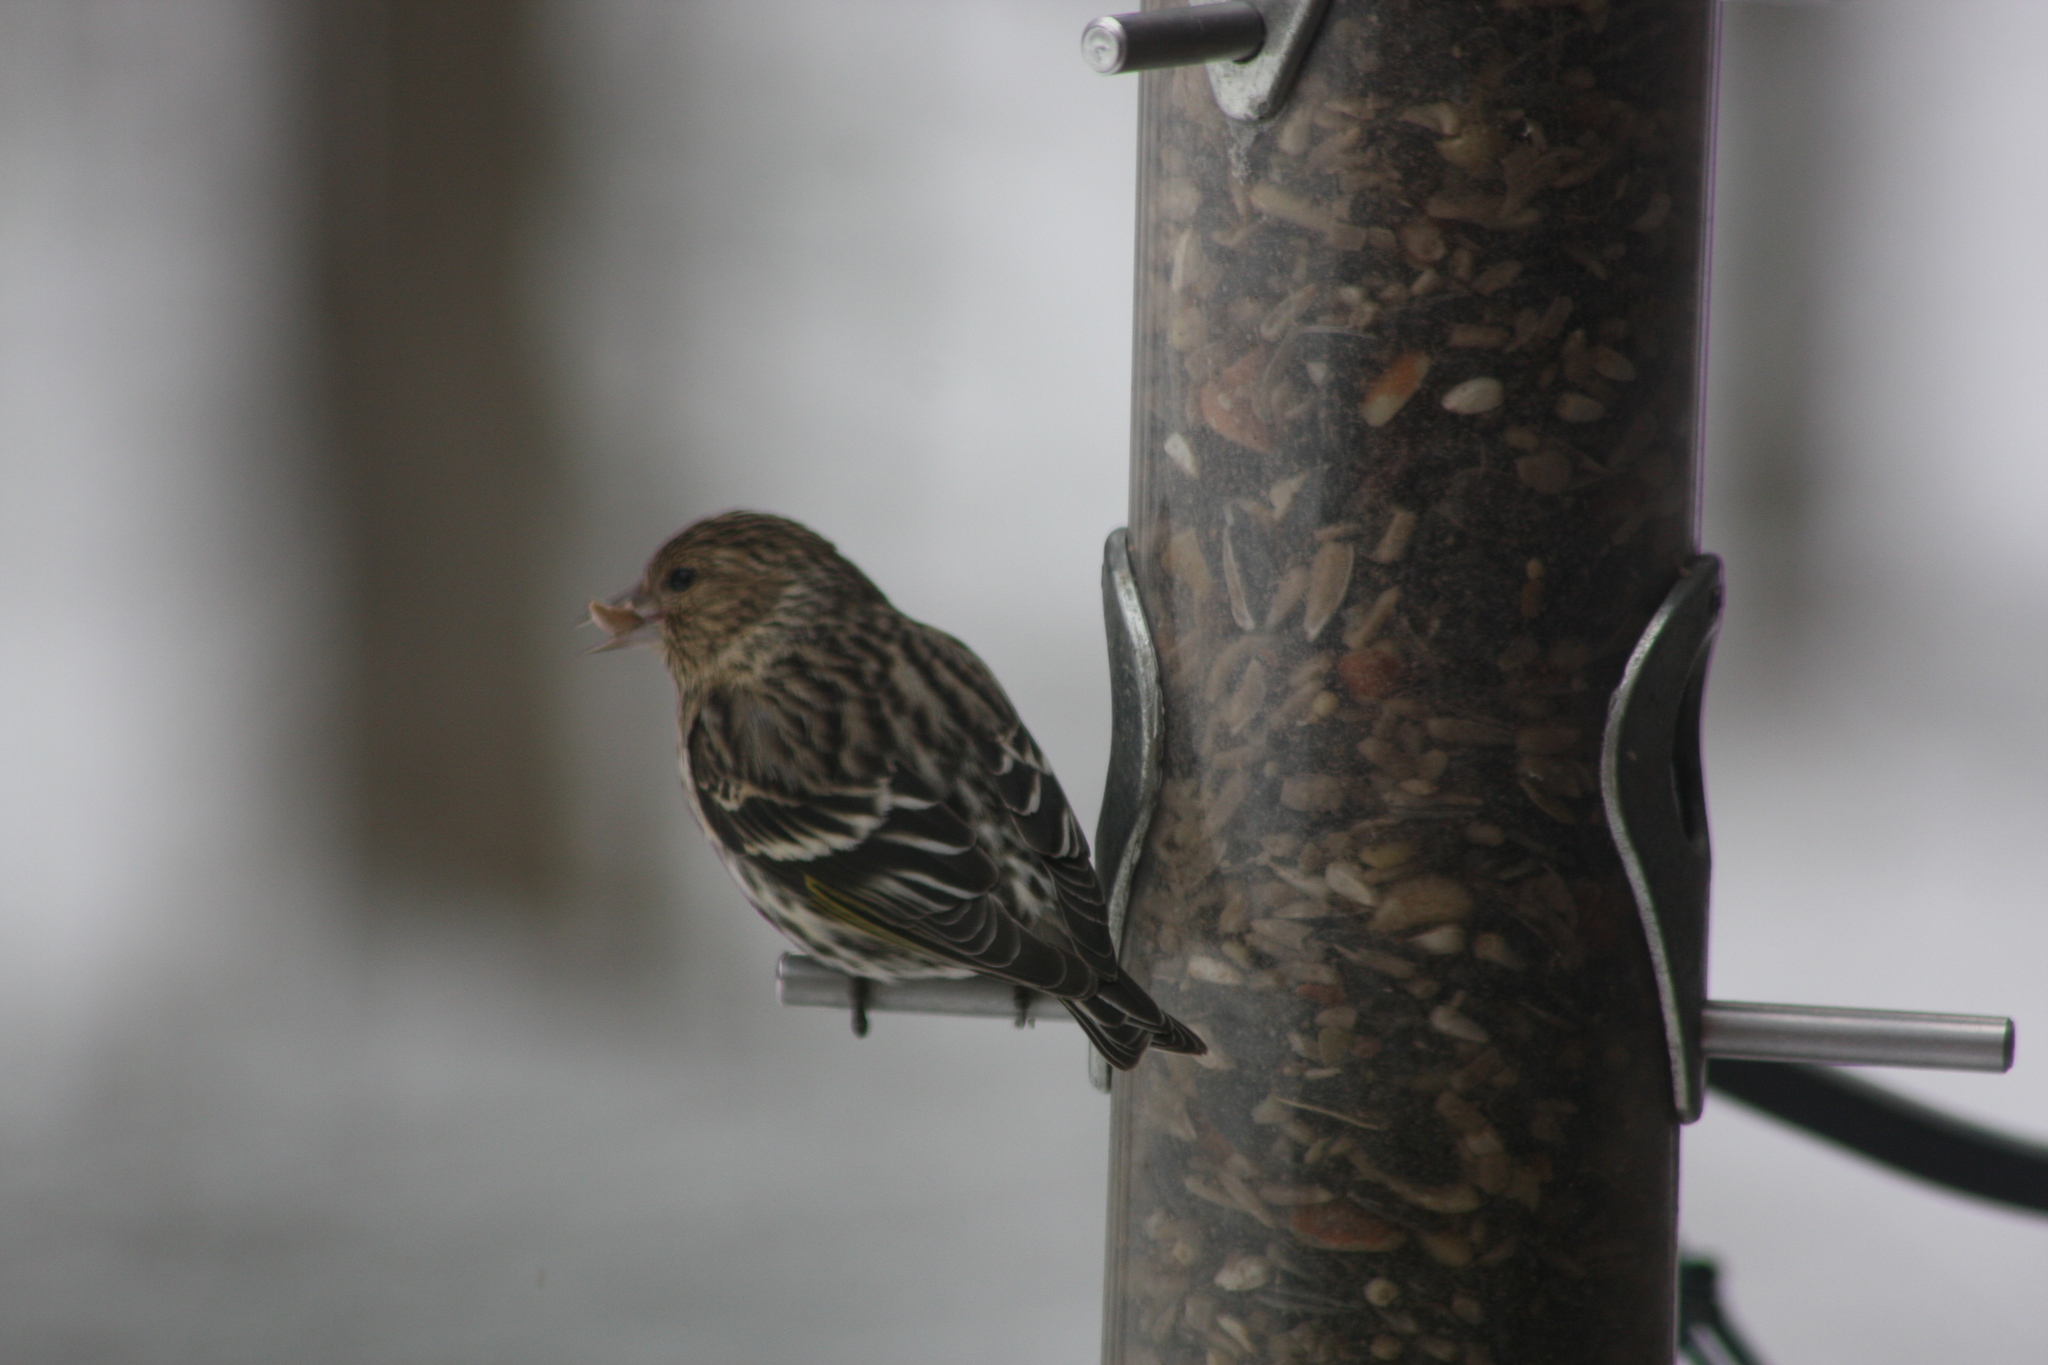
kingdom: Animalia
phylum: Chordata
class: Aves
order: Passeriformes
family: Fringillidae
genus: Spinus
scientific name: Spinus pinus
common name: Pine siskin
